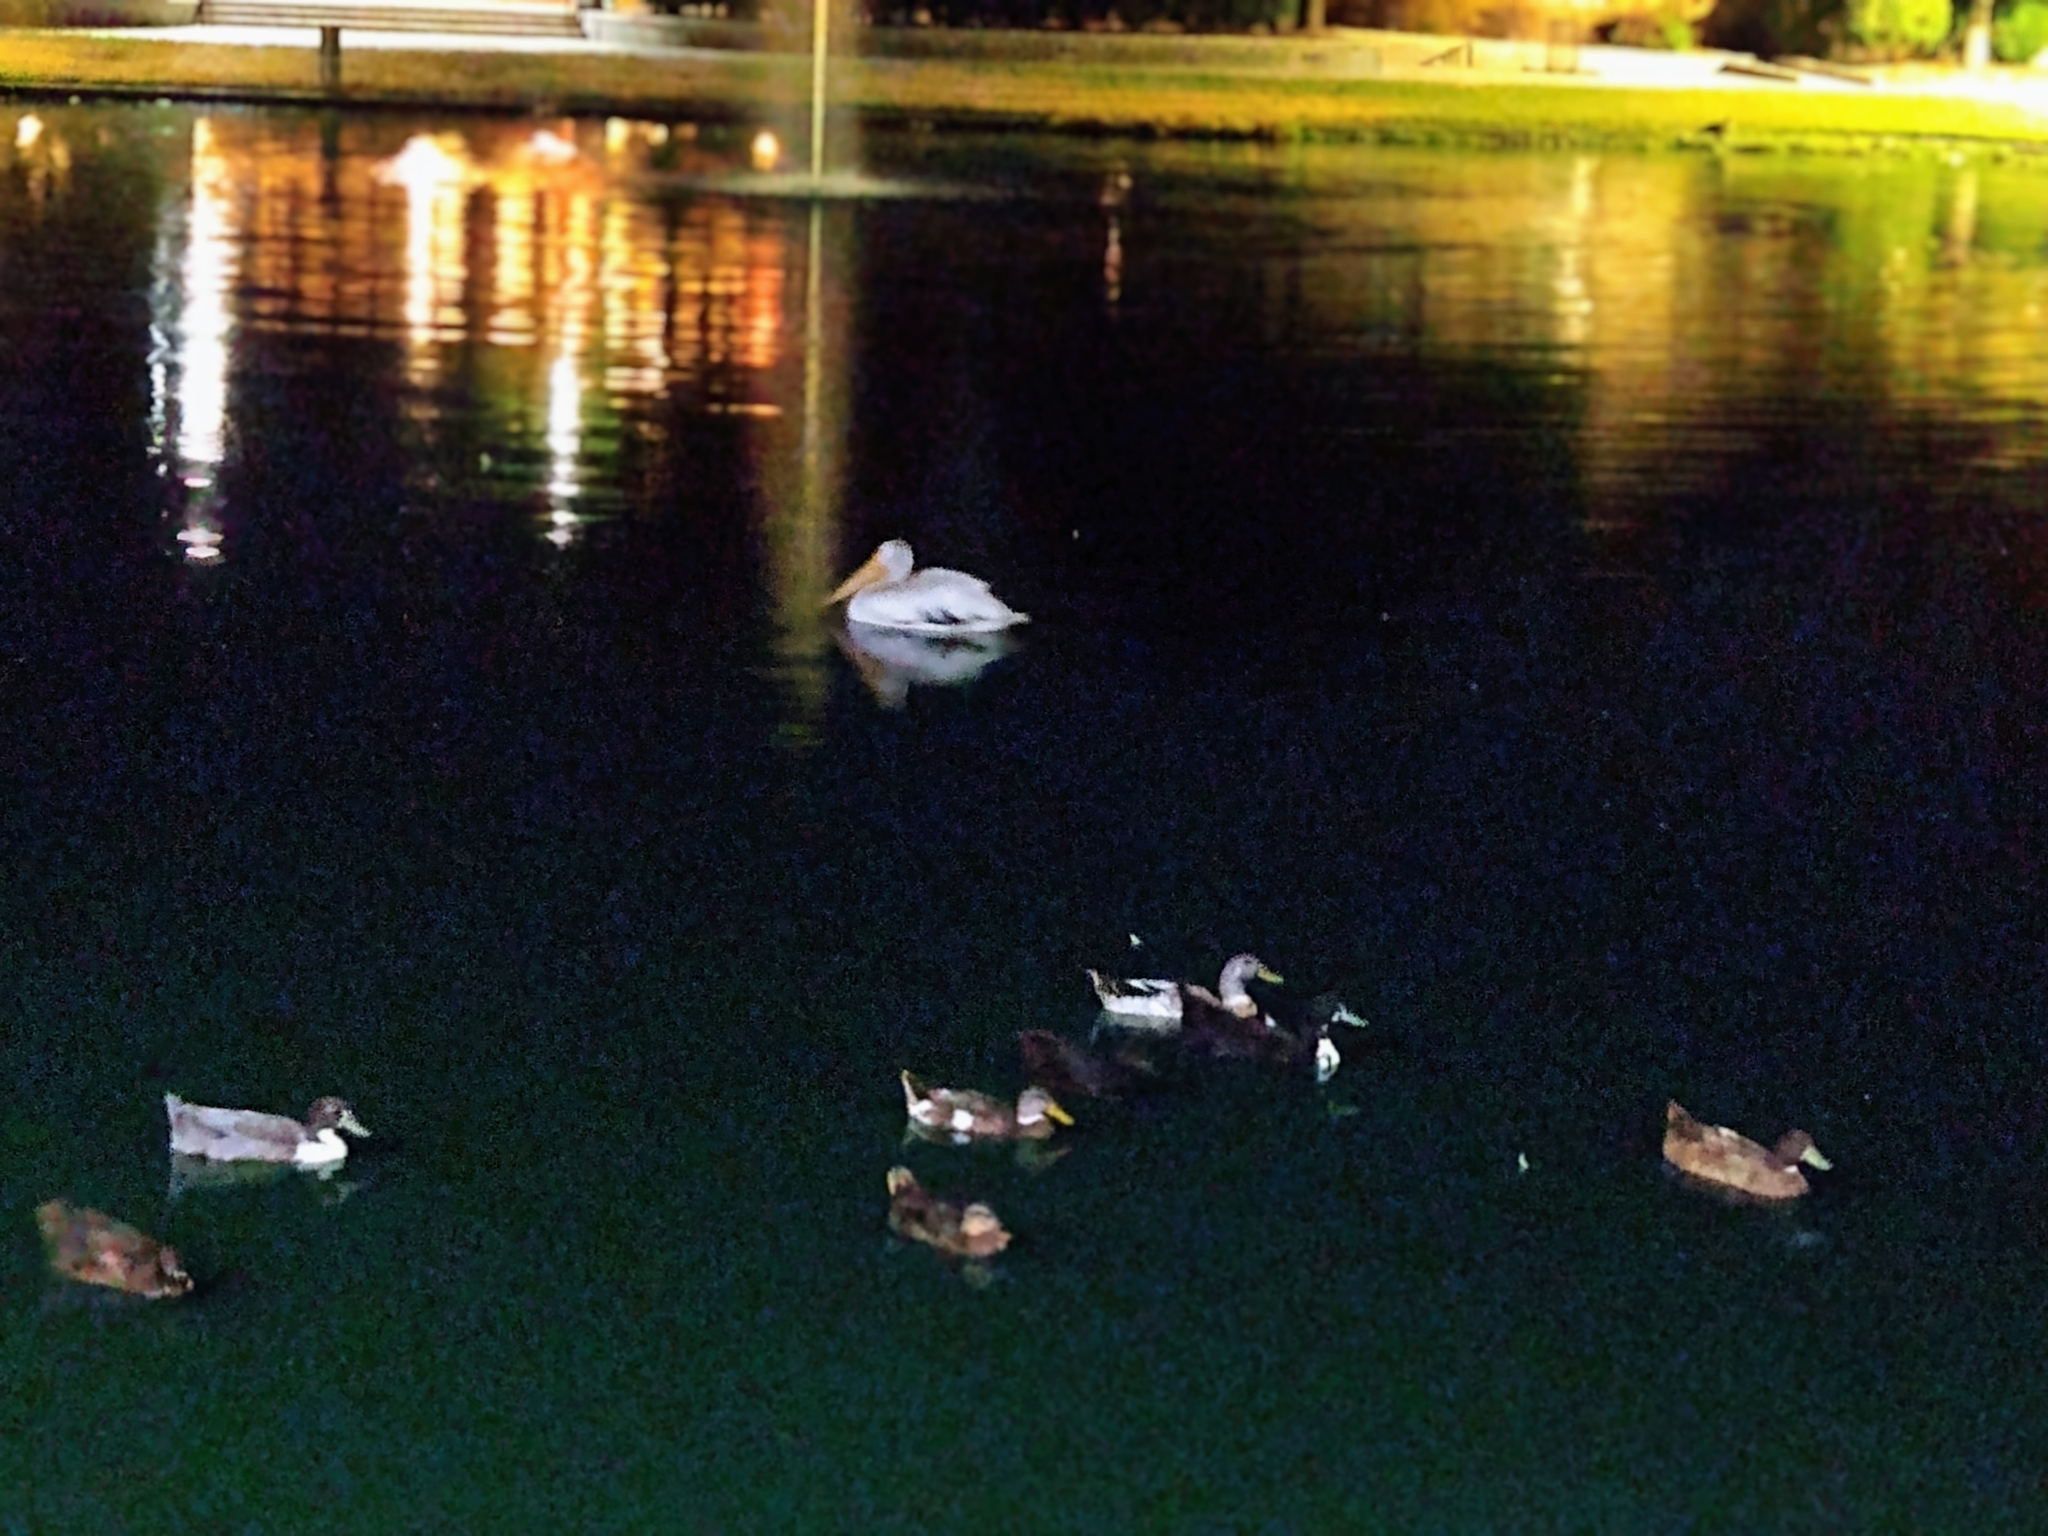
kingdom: Animalia
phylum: Chordata
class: Aves
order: Pelecaniformes
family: Pelecanidae
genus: Pelecanus
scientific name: Pelecanus erythrorhynchos
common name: American white pelican
